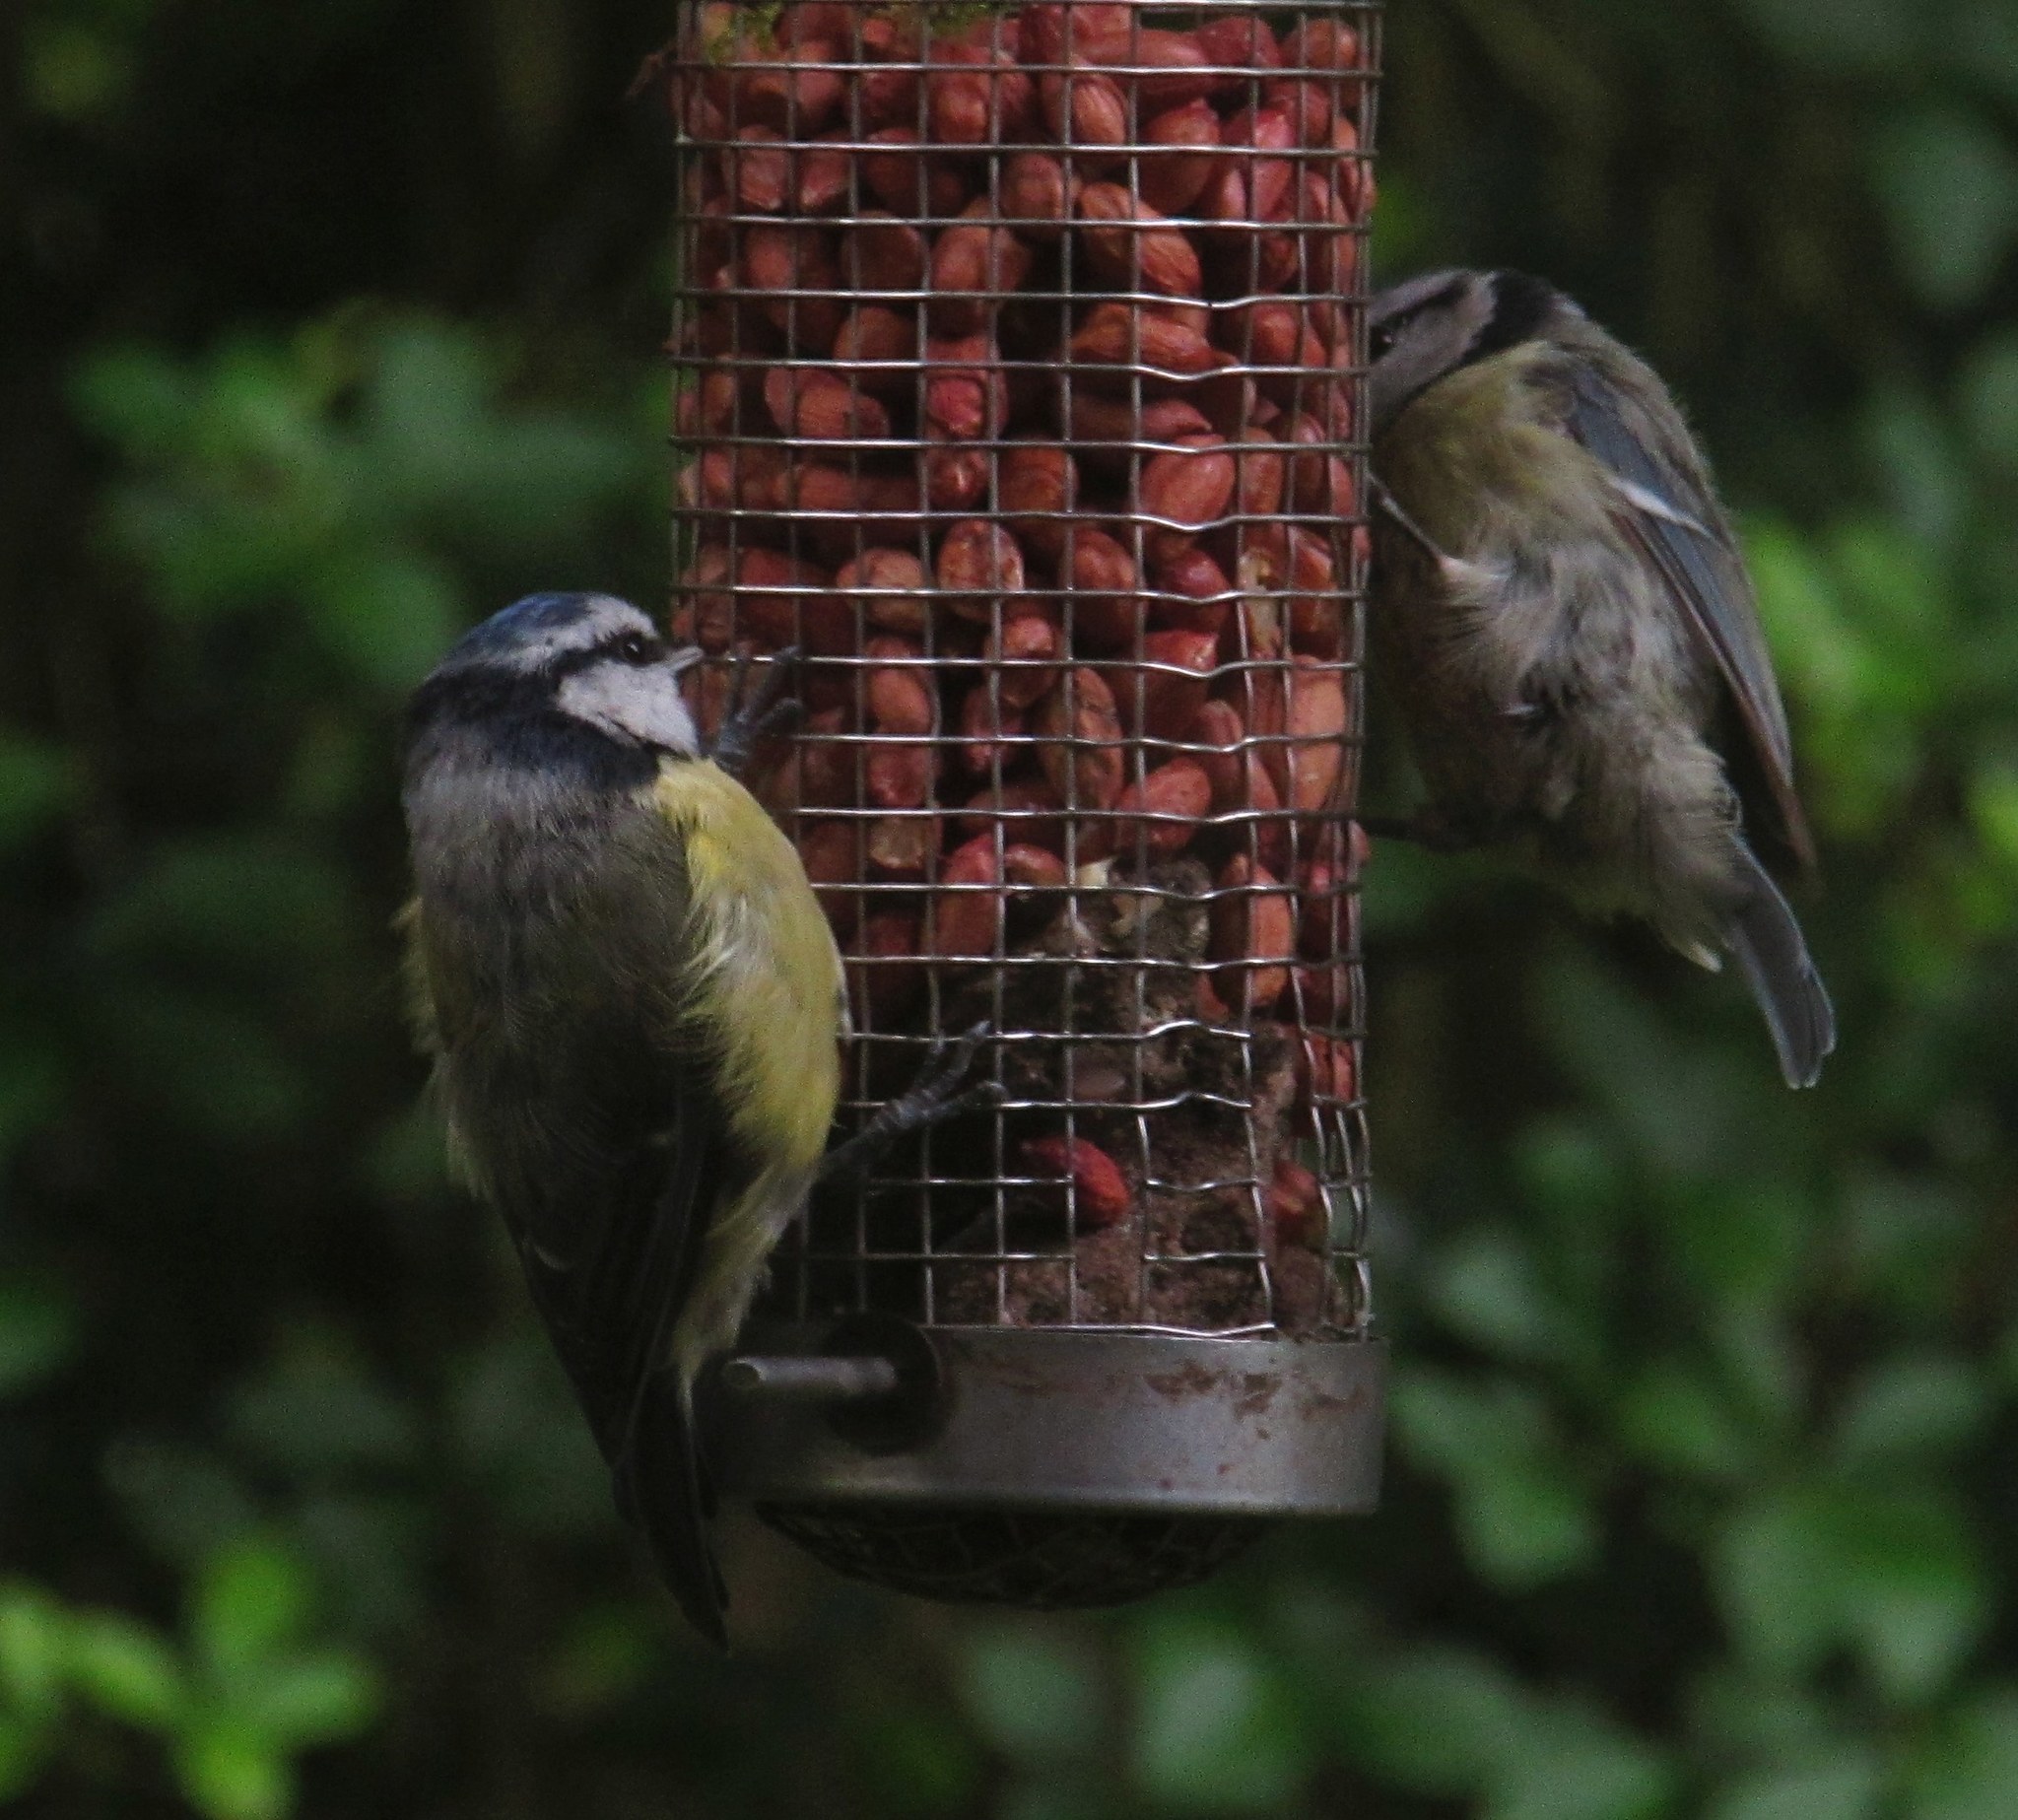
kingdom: Animalia
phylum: Chordata
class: Aves
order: Passeriformes
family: Paridae
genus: Cyanistes
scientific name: Cyanistes caeruleus
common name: Eurasian blue tit
